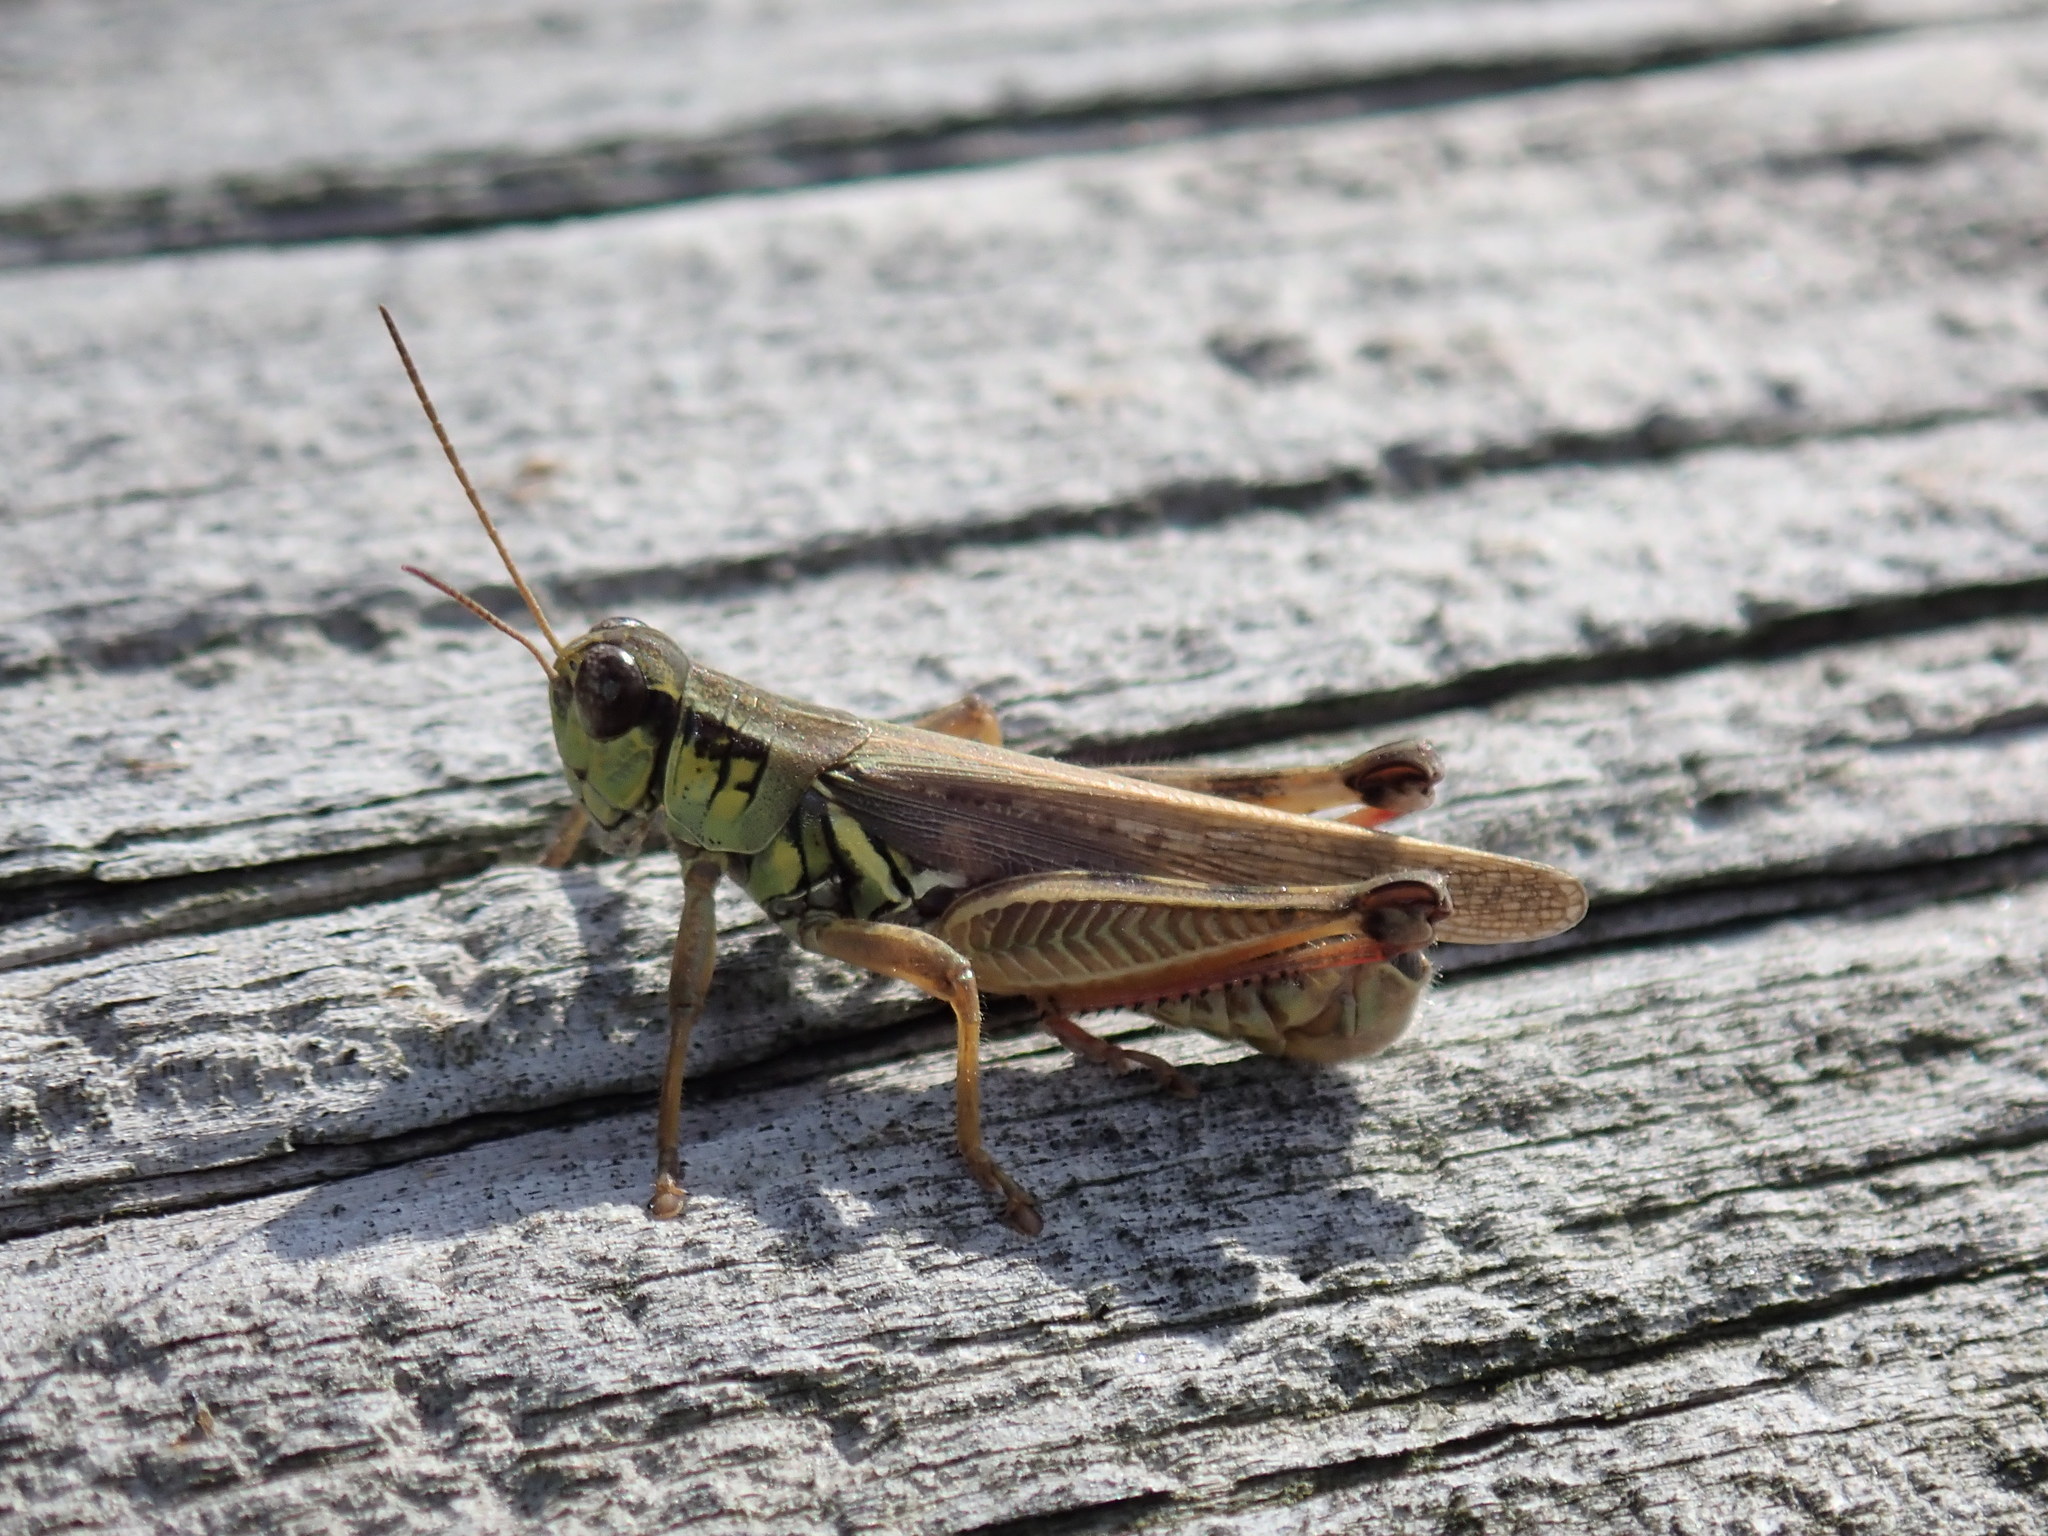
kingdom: Animalia
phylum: Arthropoda
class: Insecta
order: Orthoptera
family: Acrididae
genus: Melanoplus
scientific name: Melanoplus femurrubrum
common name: Red-legged grasshopper
